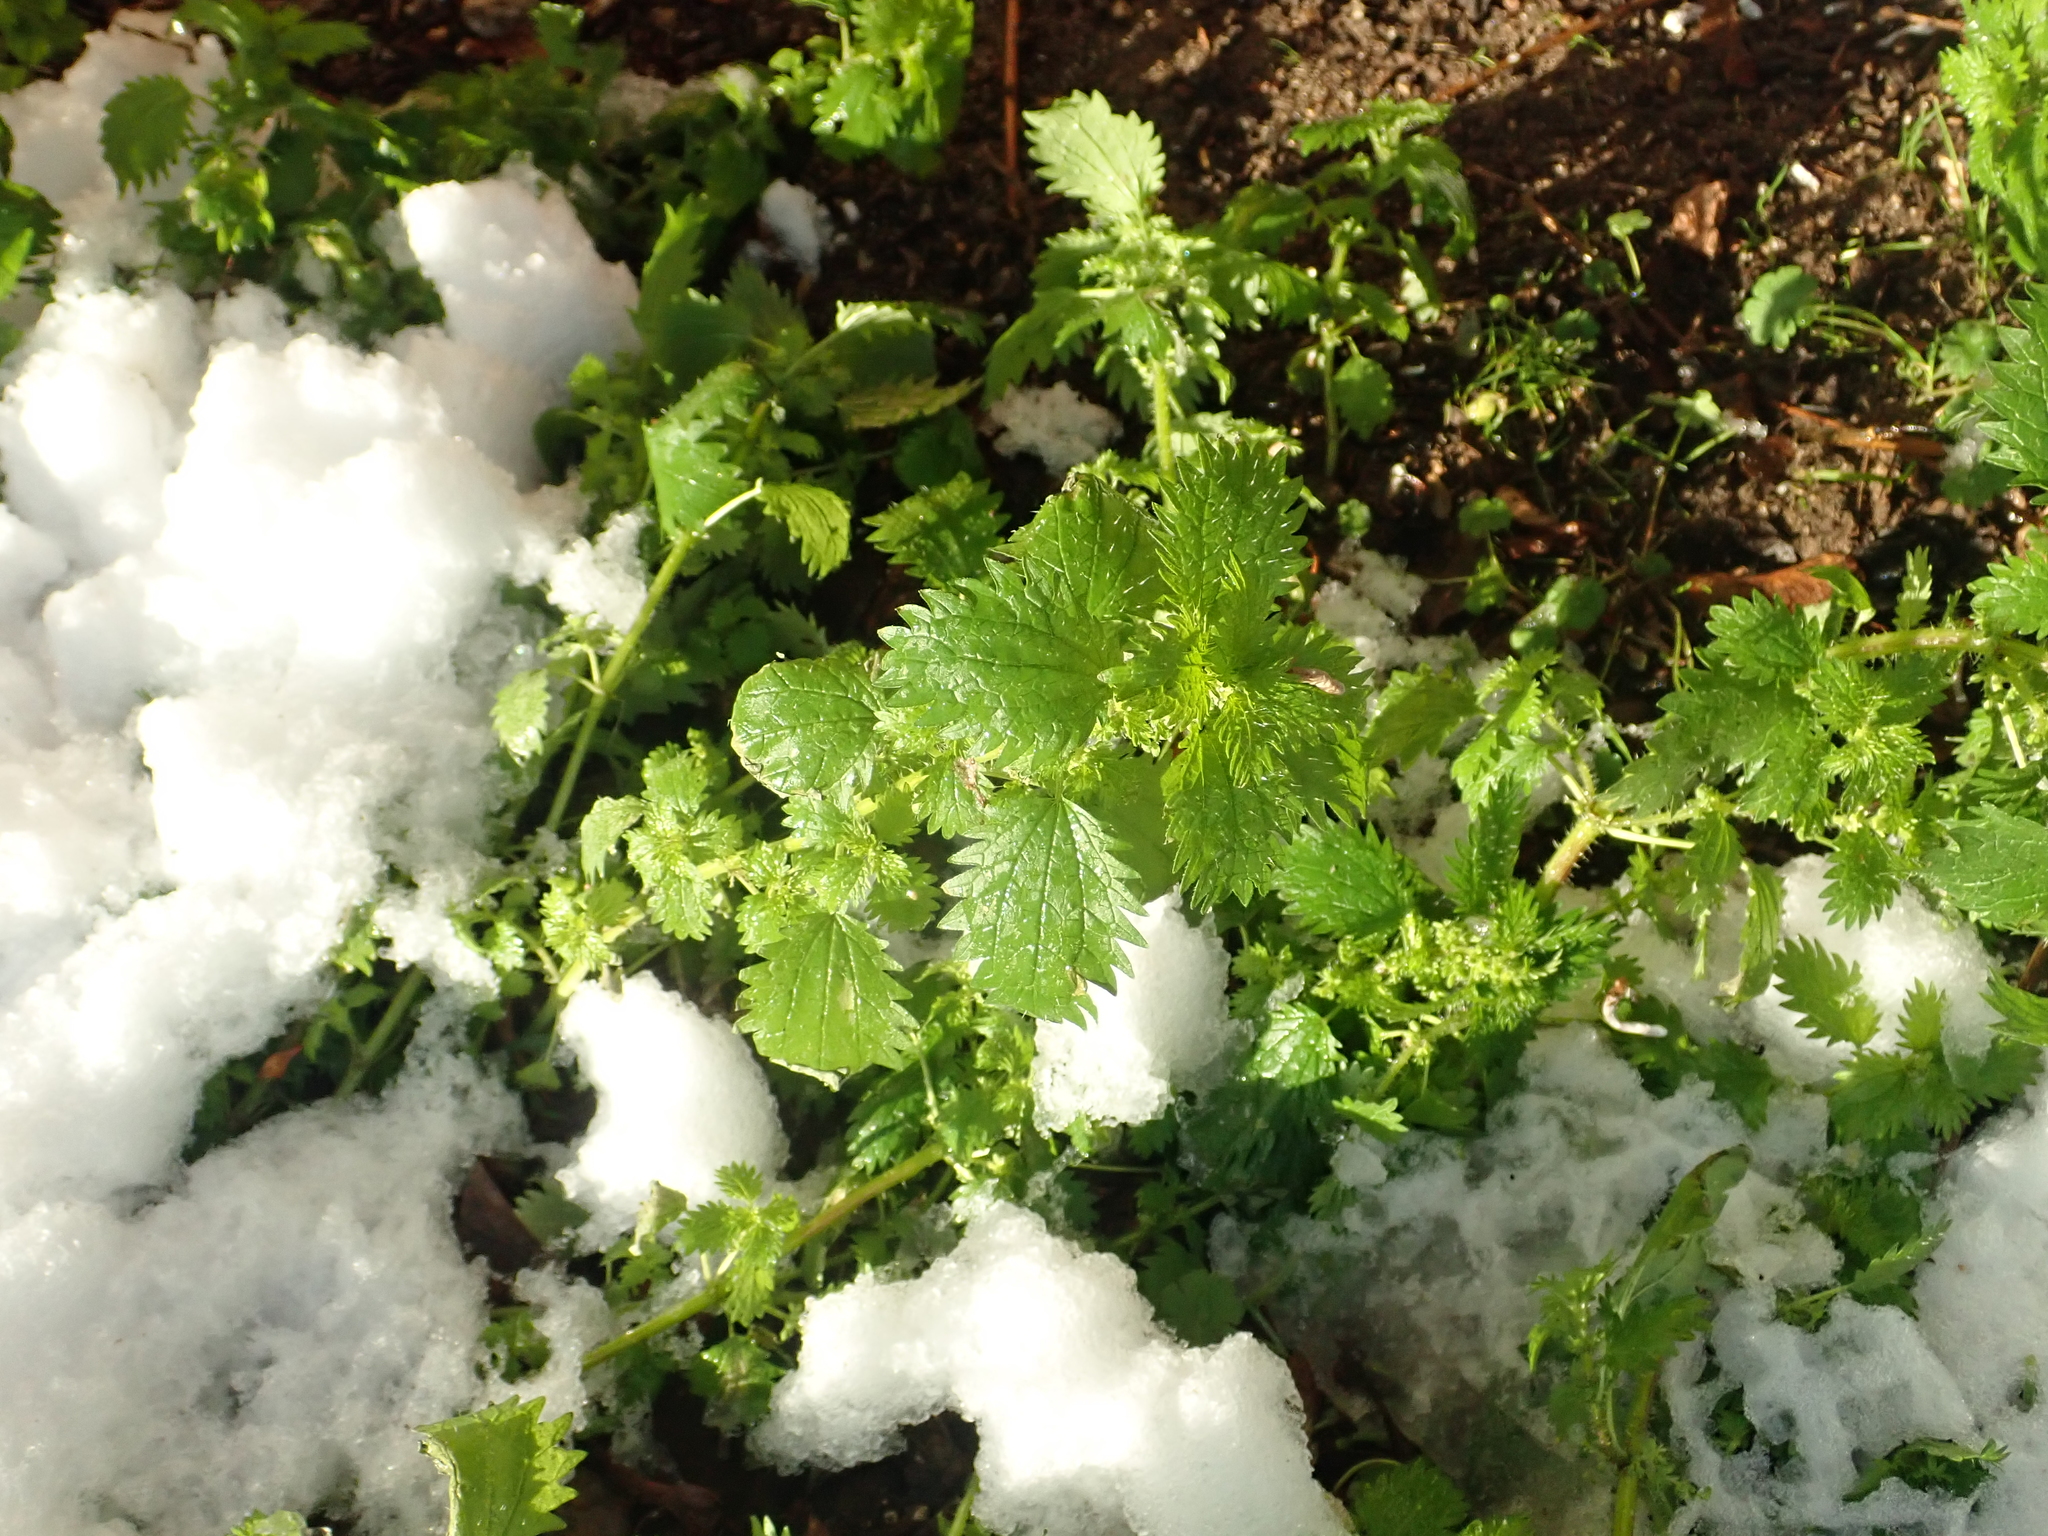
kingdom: Plantae
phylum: Tracheophyta
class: Magnoliopsida
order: Rosales
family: Urticaceae
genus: Urtica
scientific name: Urtica urens
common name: Dwarf nettle
